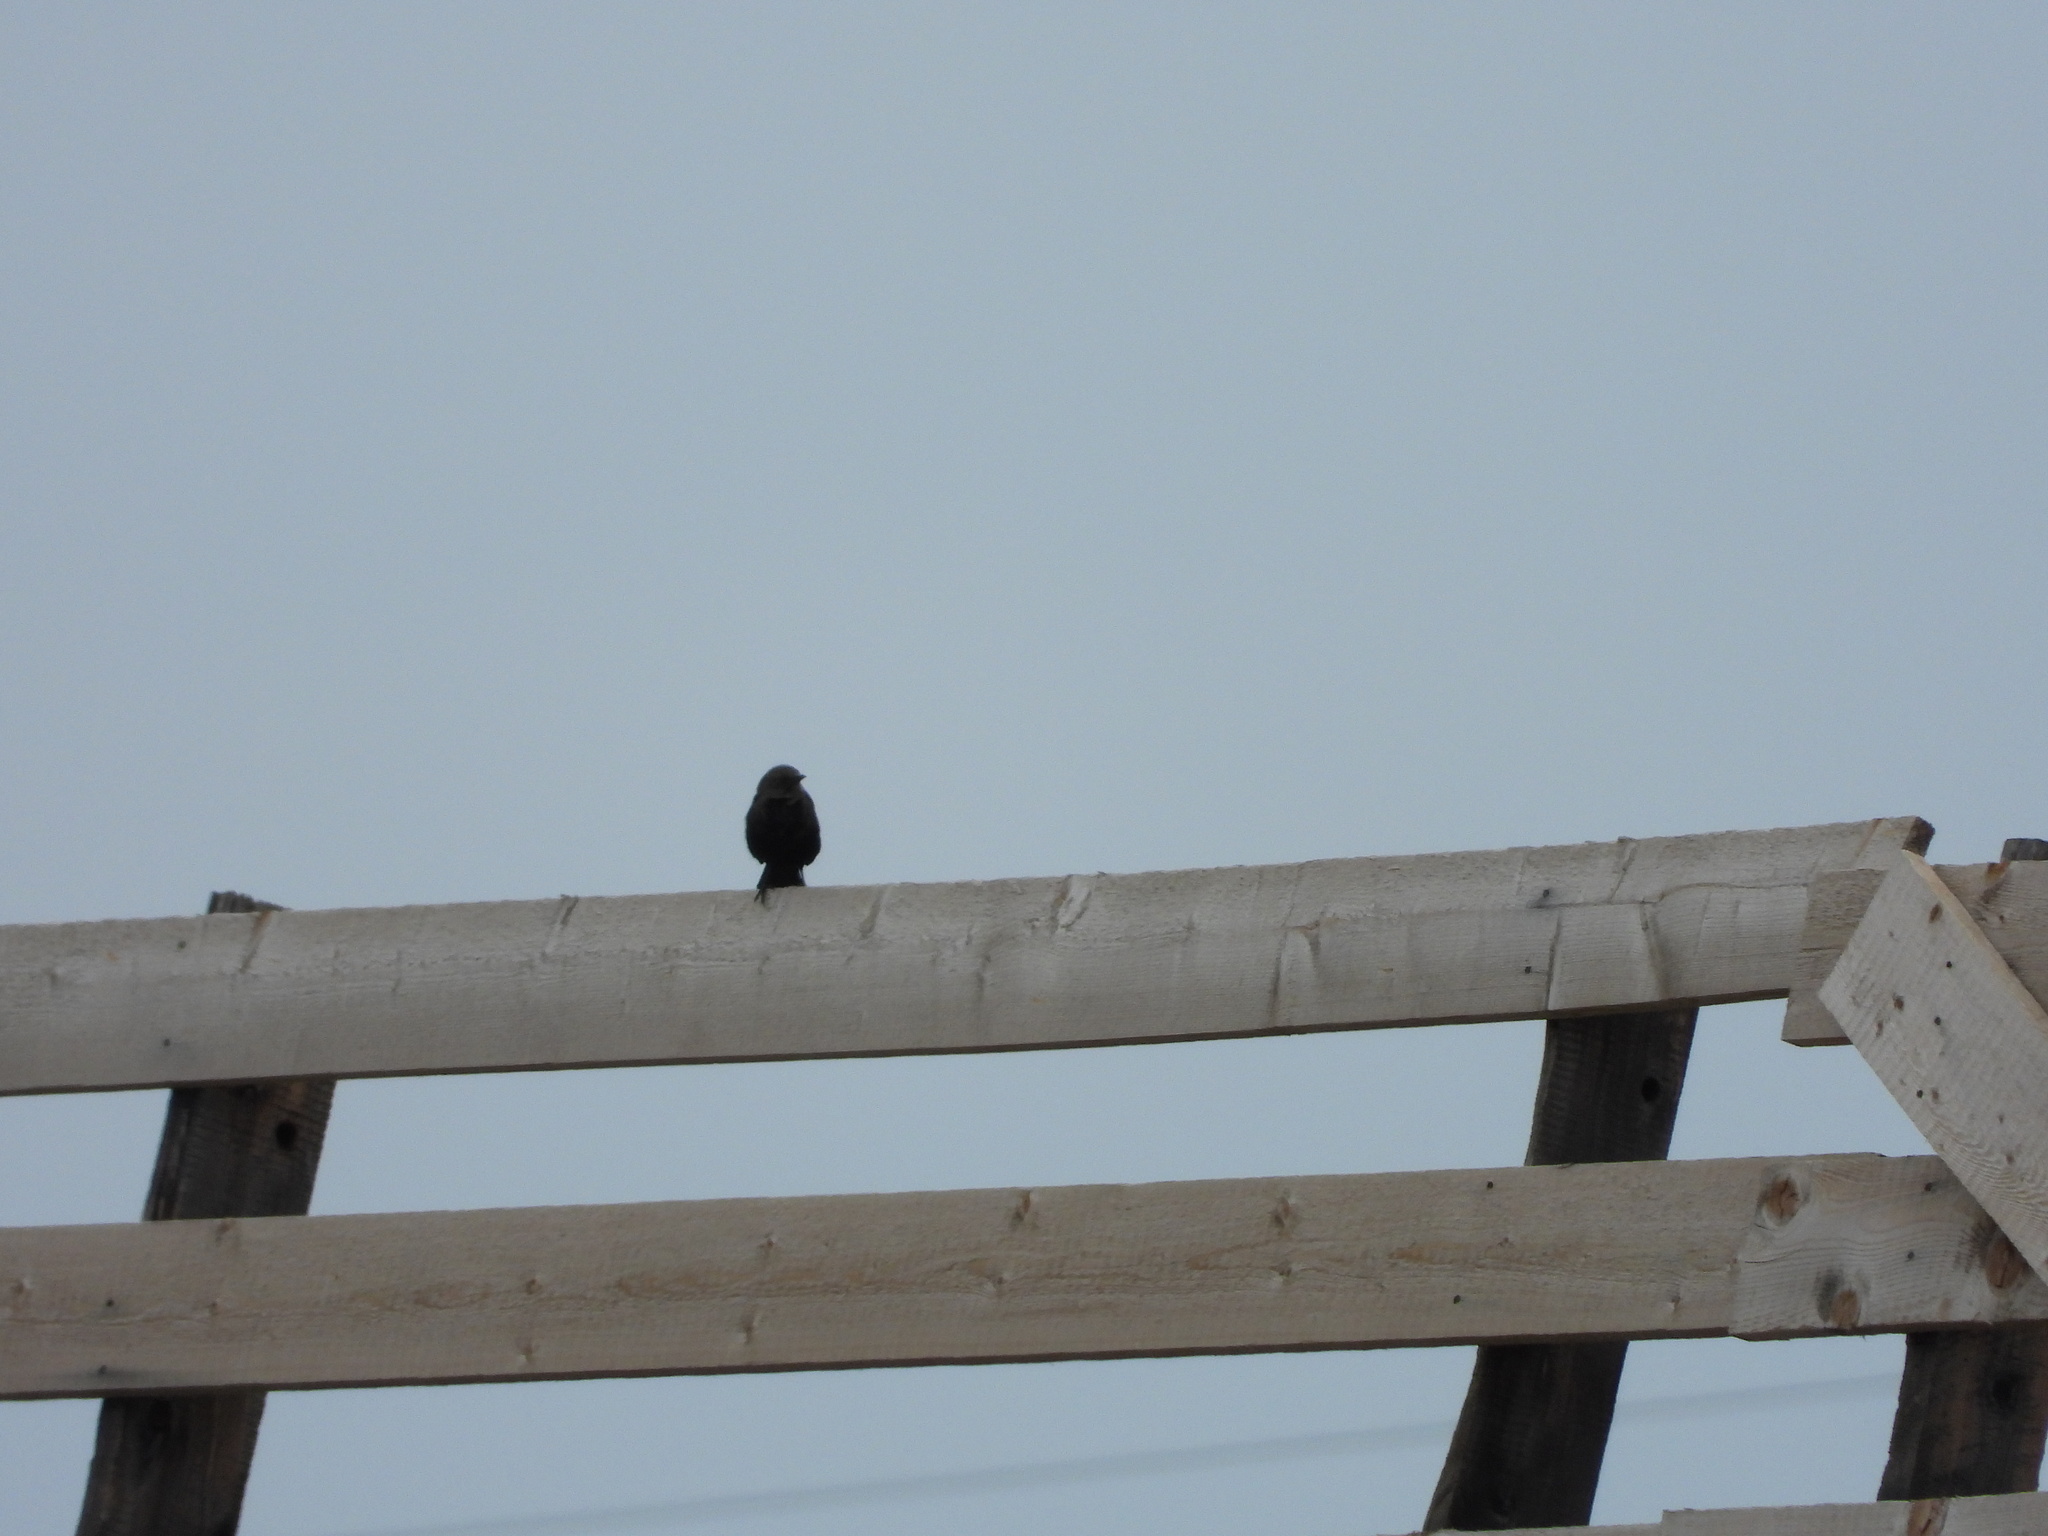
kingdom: Animalia
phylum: Chordata
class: Aves
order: Passeriformes
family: Icteridae
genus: Euphagus
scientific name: Euphagus cyanocephalus
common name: Brewer's blackbird
